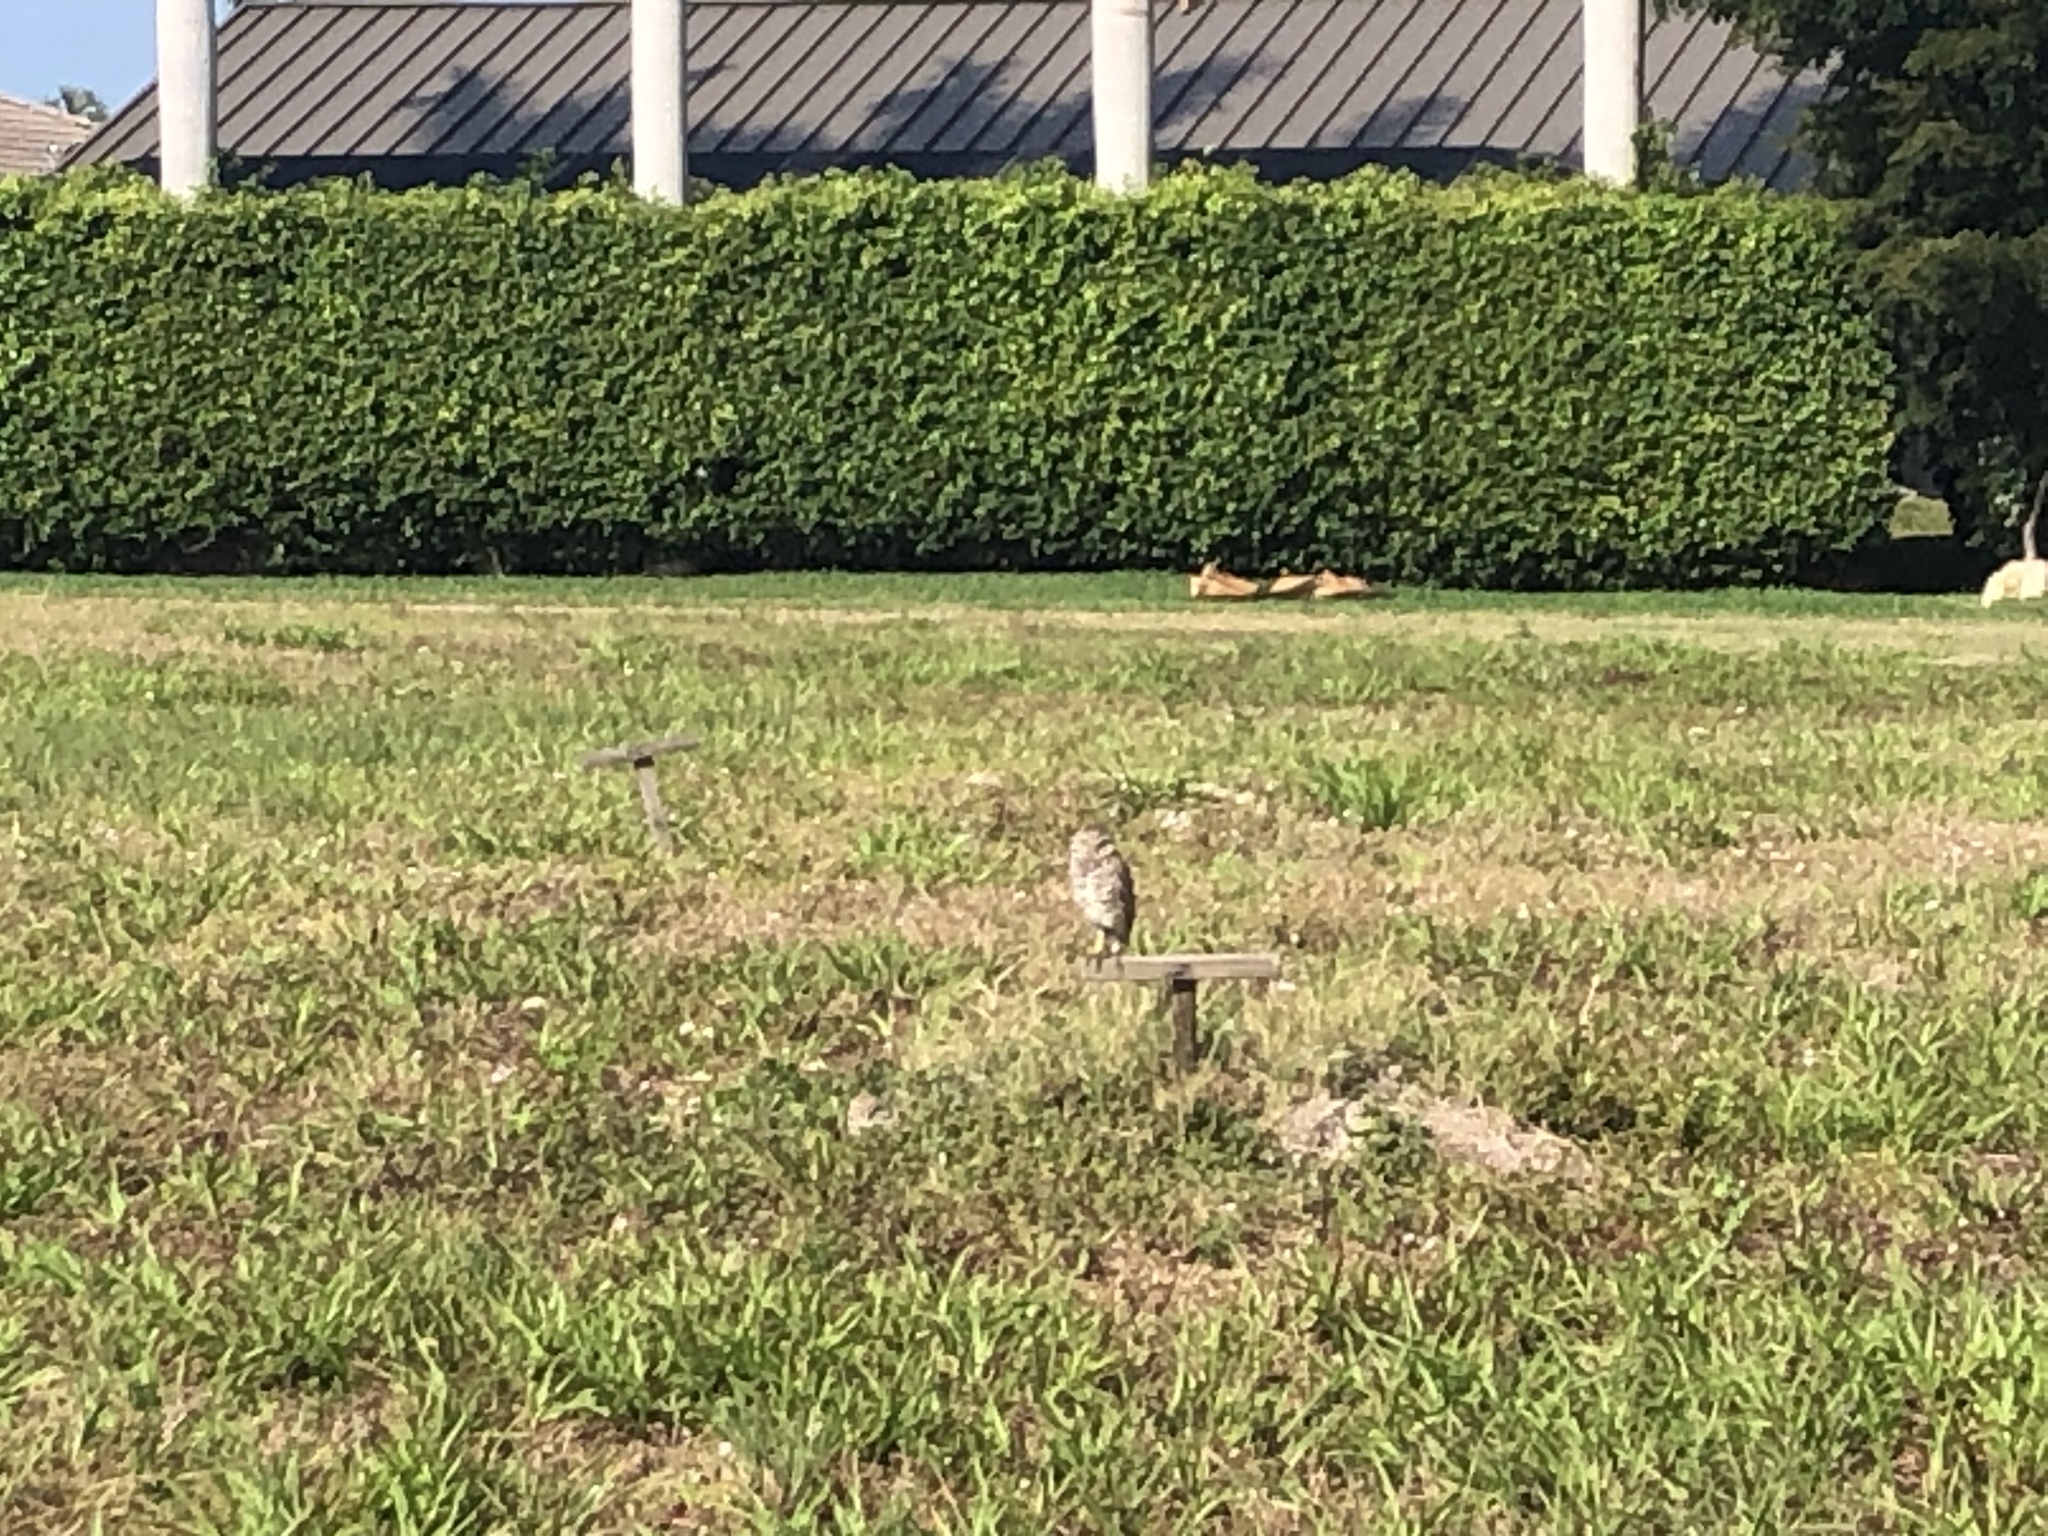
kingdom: Animalia
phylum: Chordata
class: Aves
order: Strigiformes
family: Strigidae
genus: Athene
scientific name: Athene cunicularia
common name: Burrowing owl
